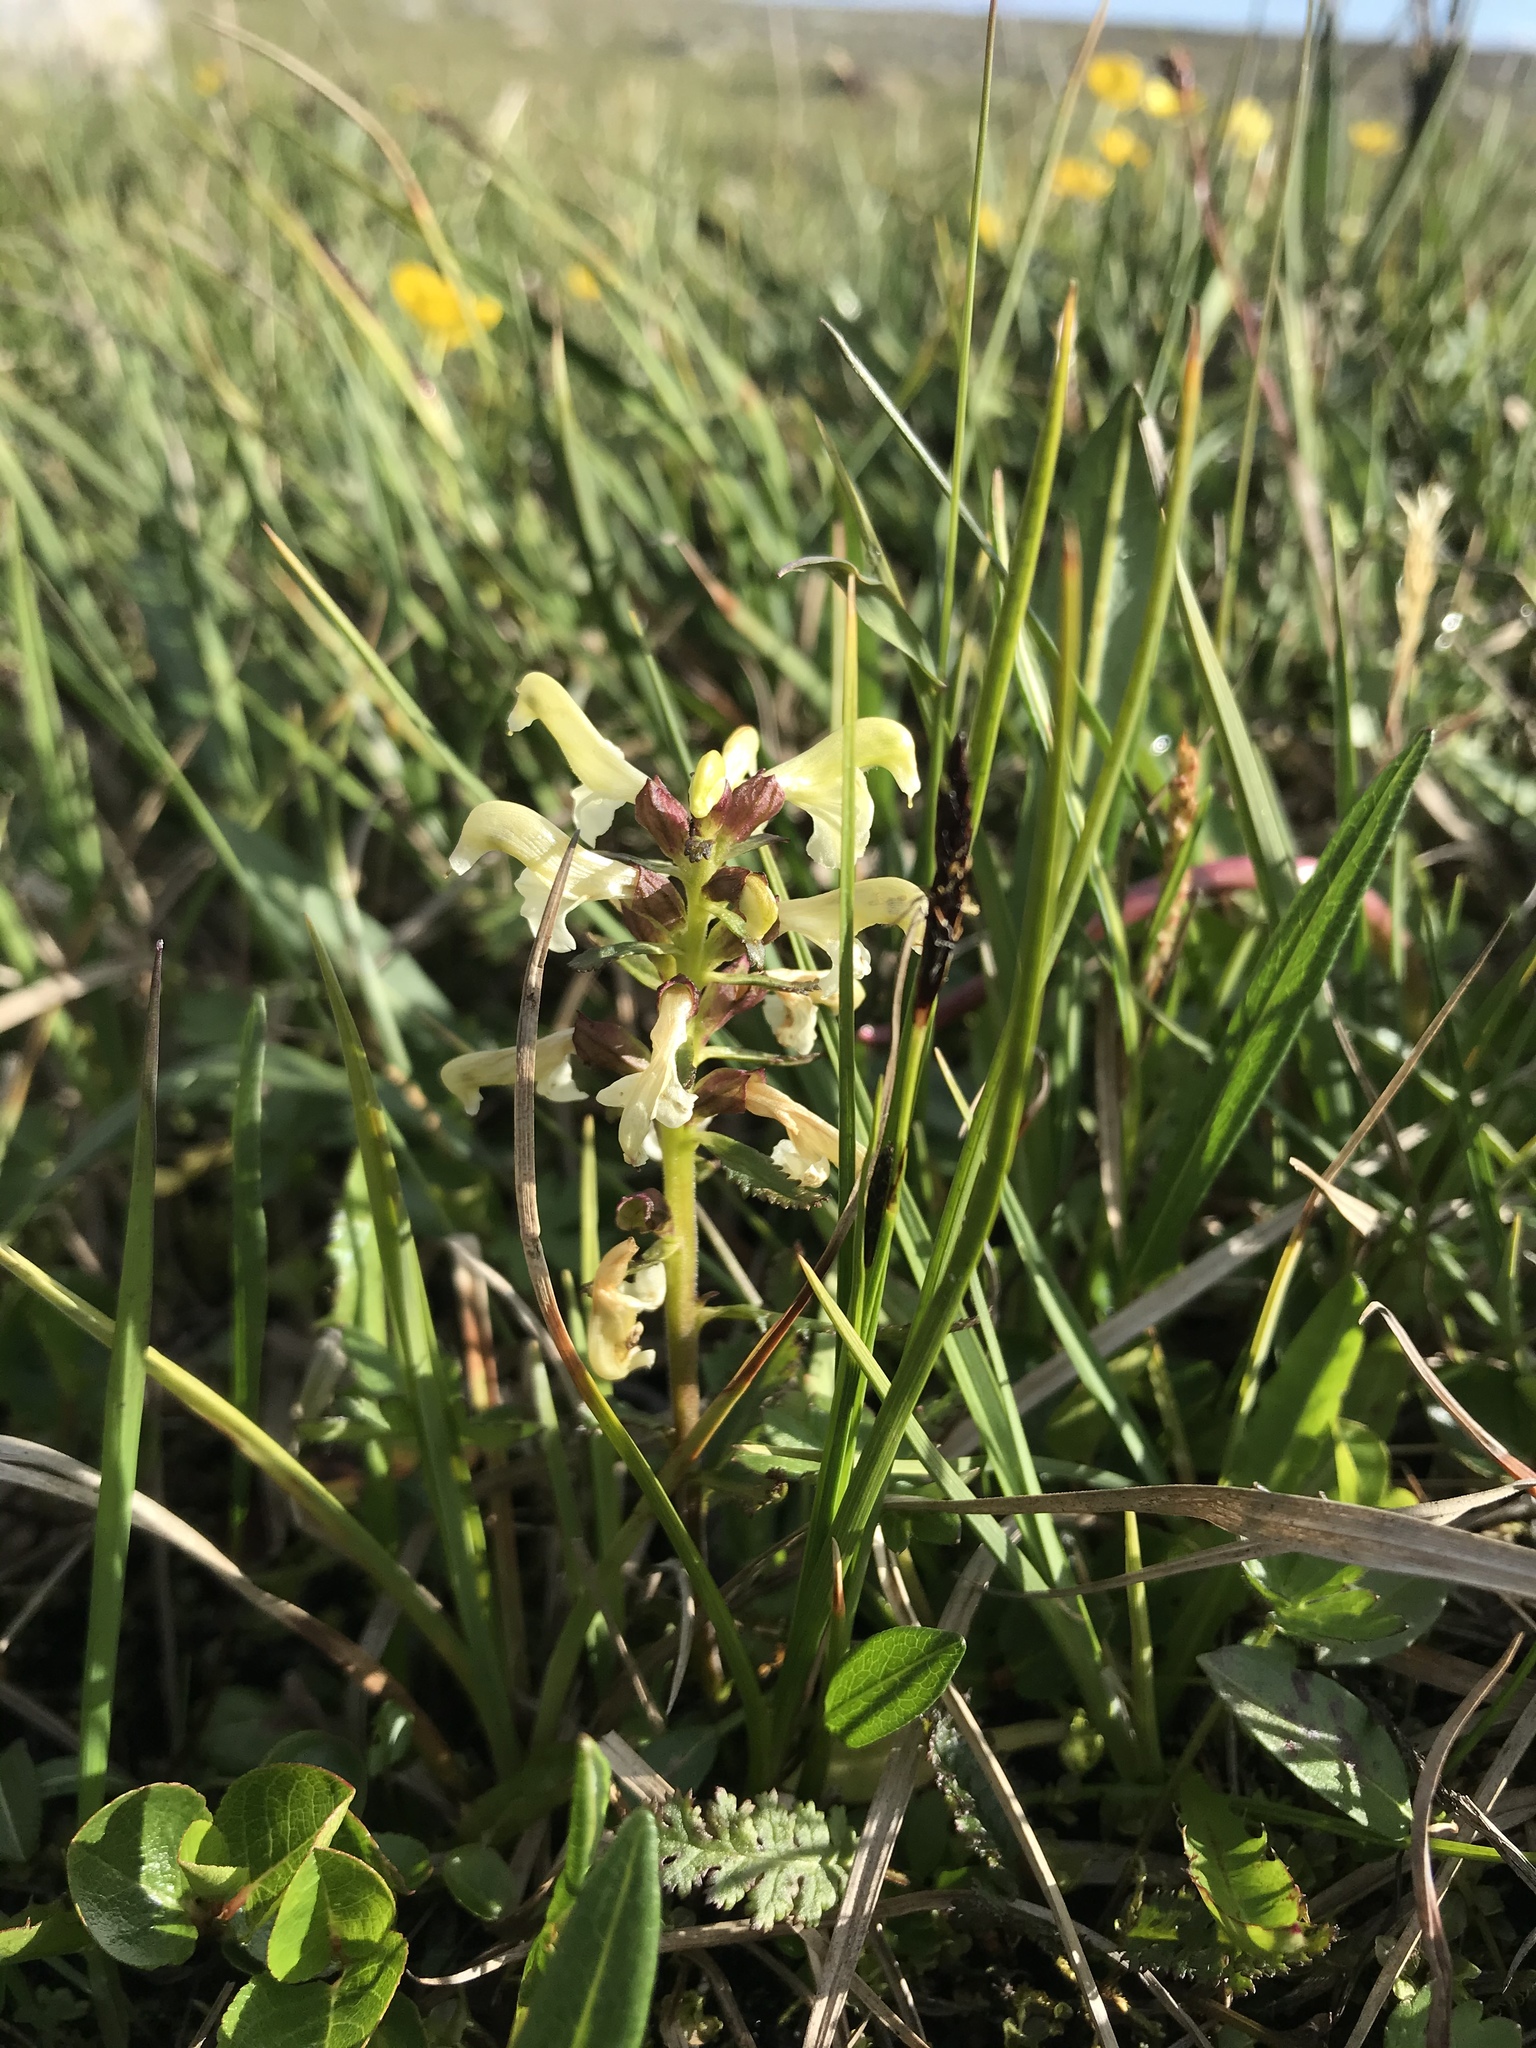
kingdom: Plantae
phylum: Tracheophyta
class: Magnoliopsida
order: Lamiales
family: Orobanchaceae
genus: Pedicularis
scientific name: Pedicularis lapponica
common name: Lapland lousewort
